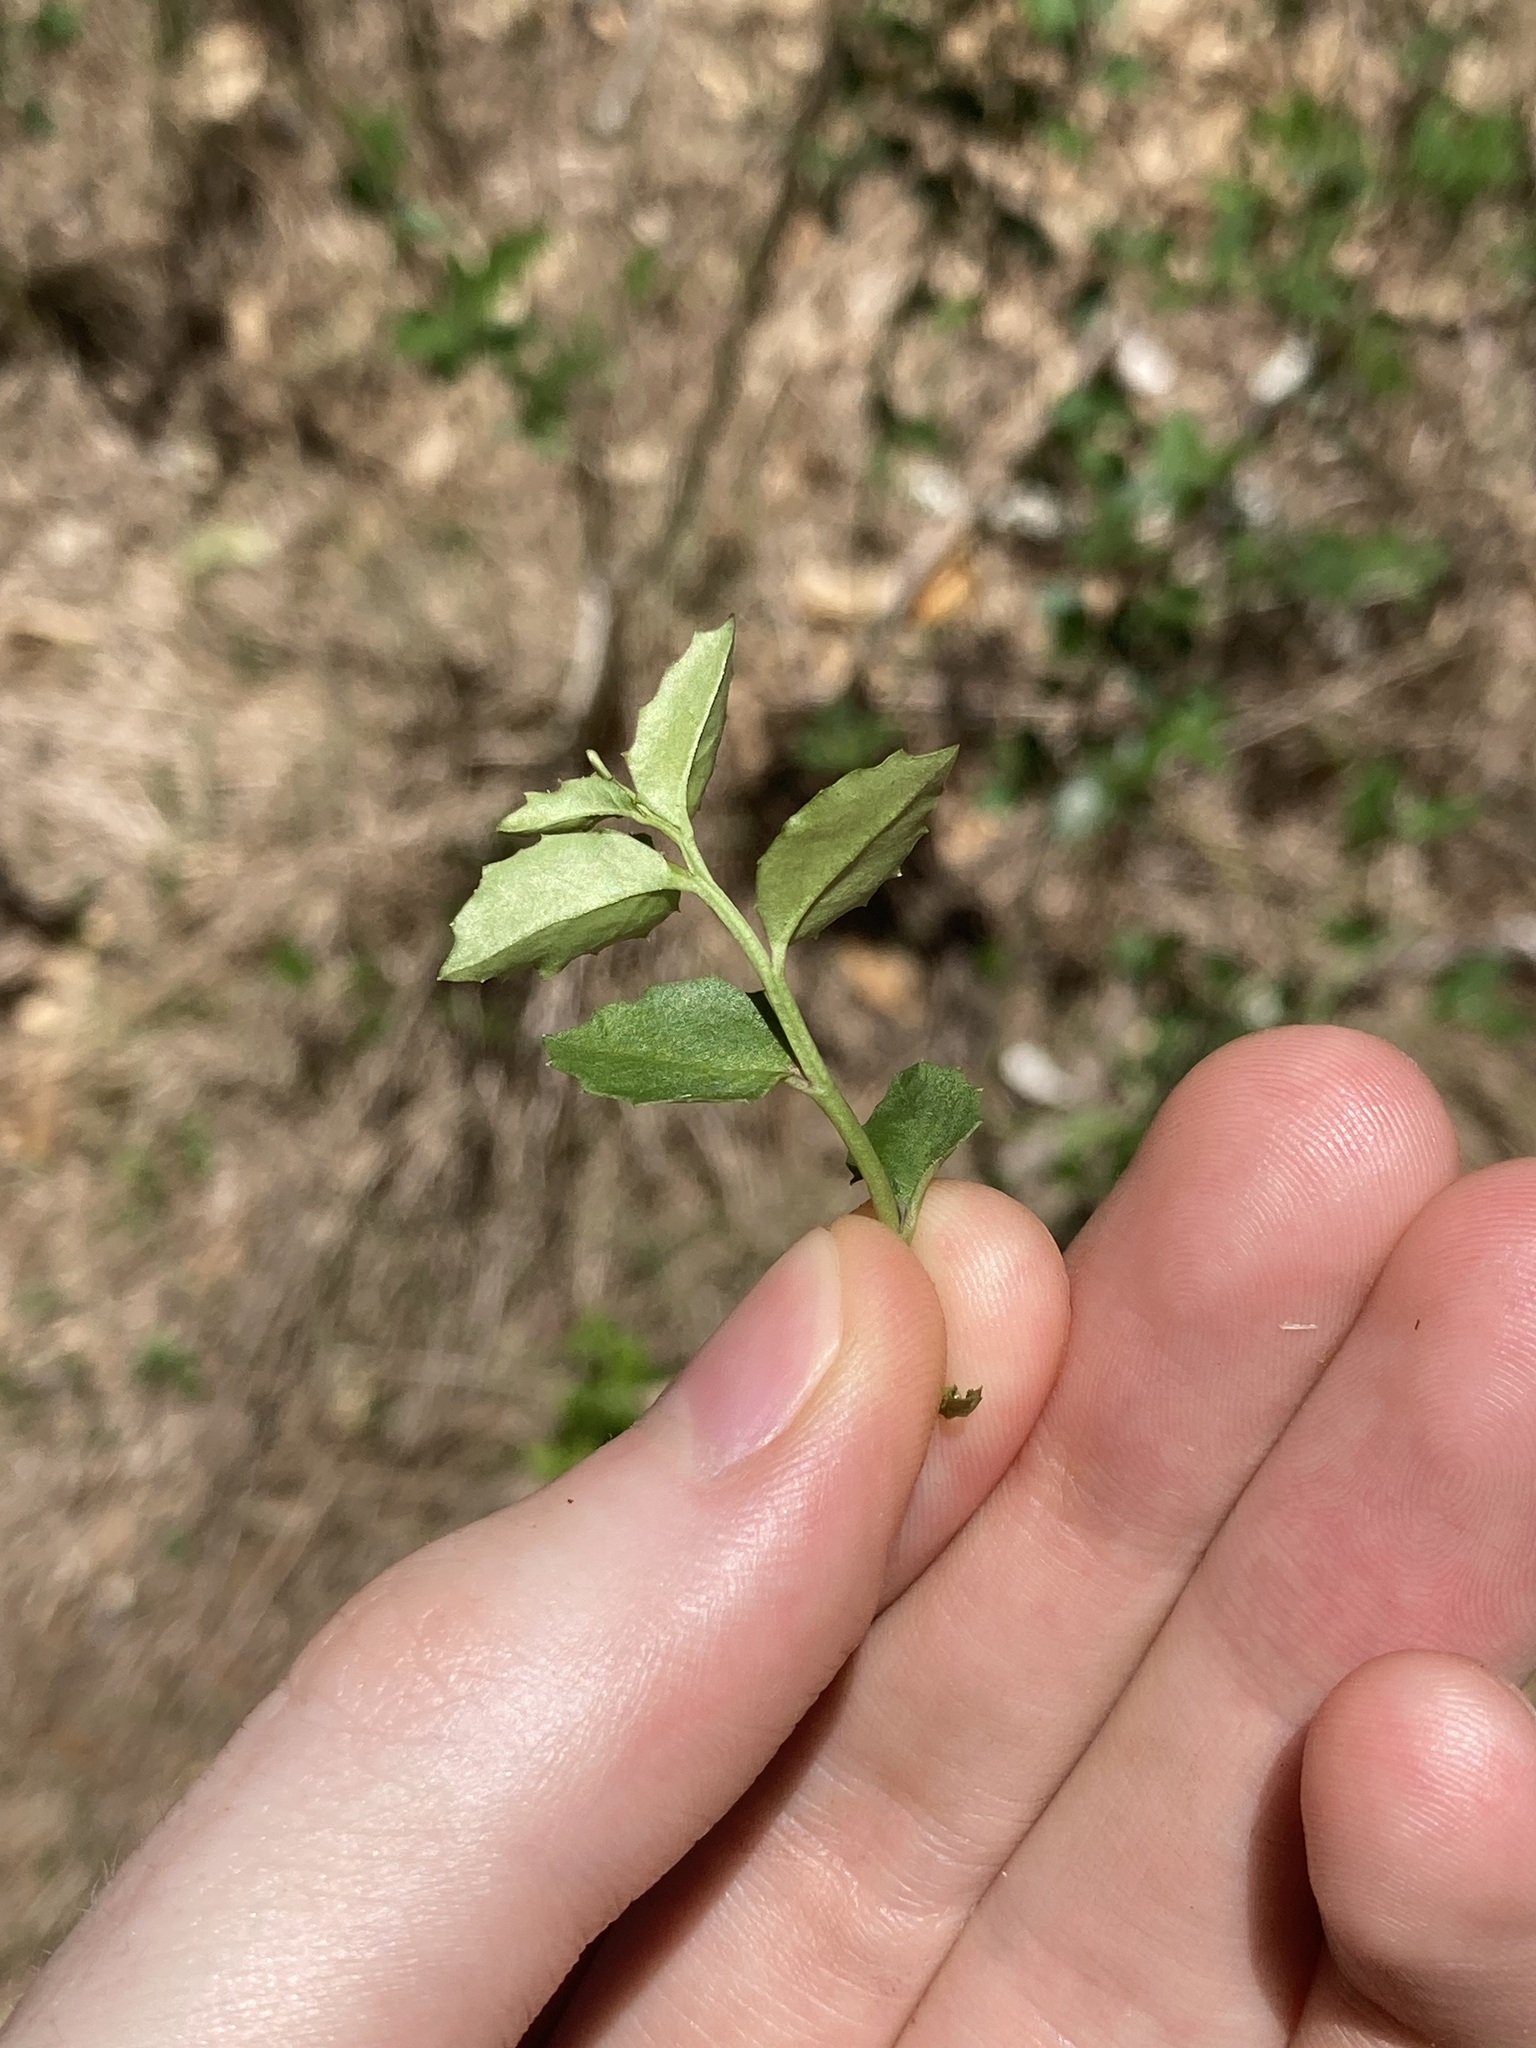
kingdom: Plantae
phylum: Tracheophyta
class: Magnoliopsida
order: Asterales
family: Campanulaceae
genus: Lobelia
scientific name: Lobelia purpurascens
